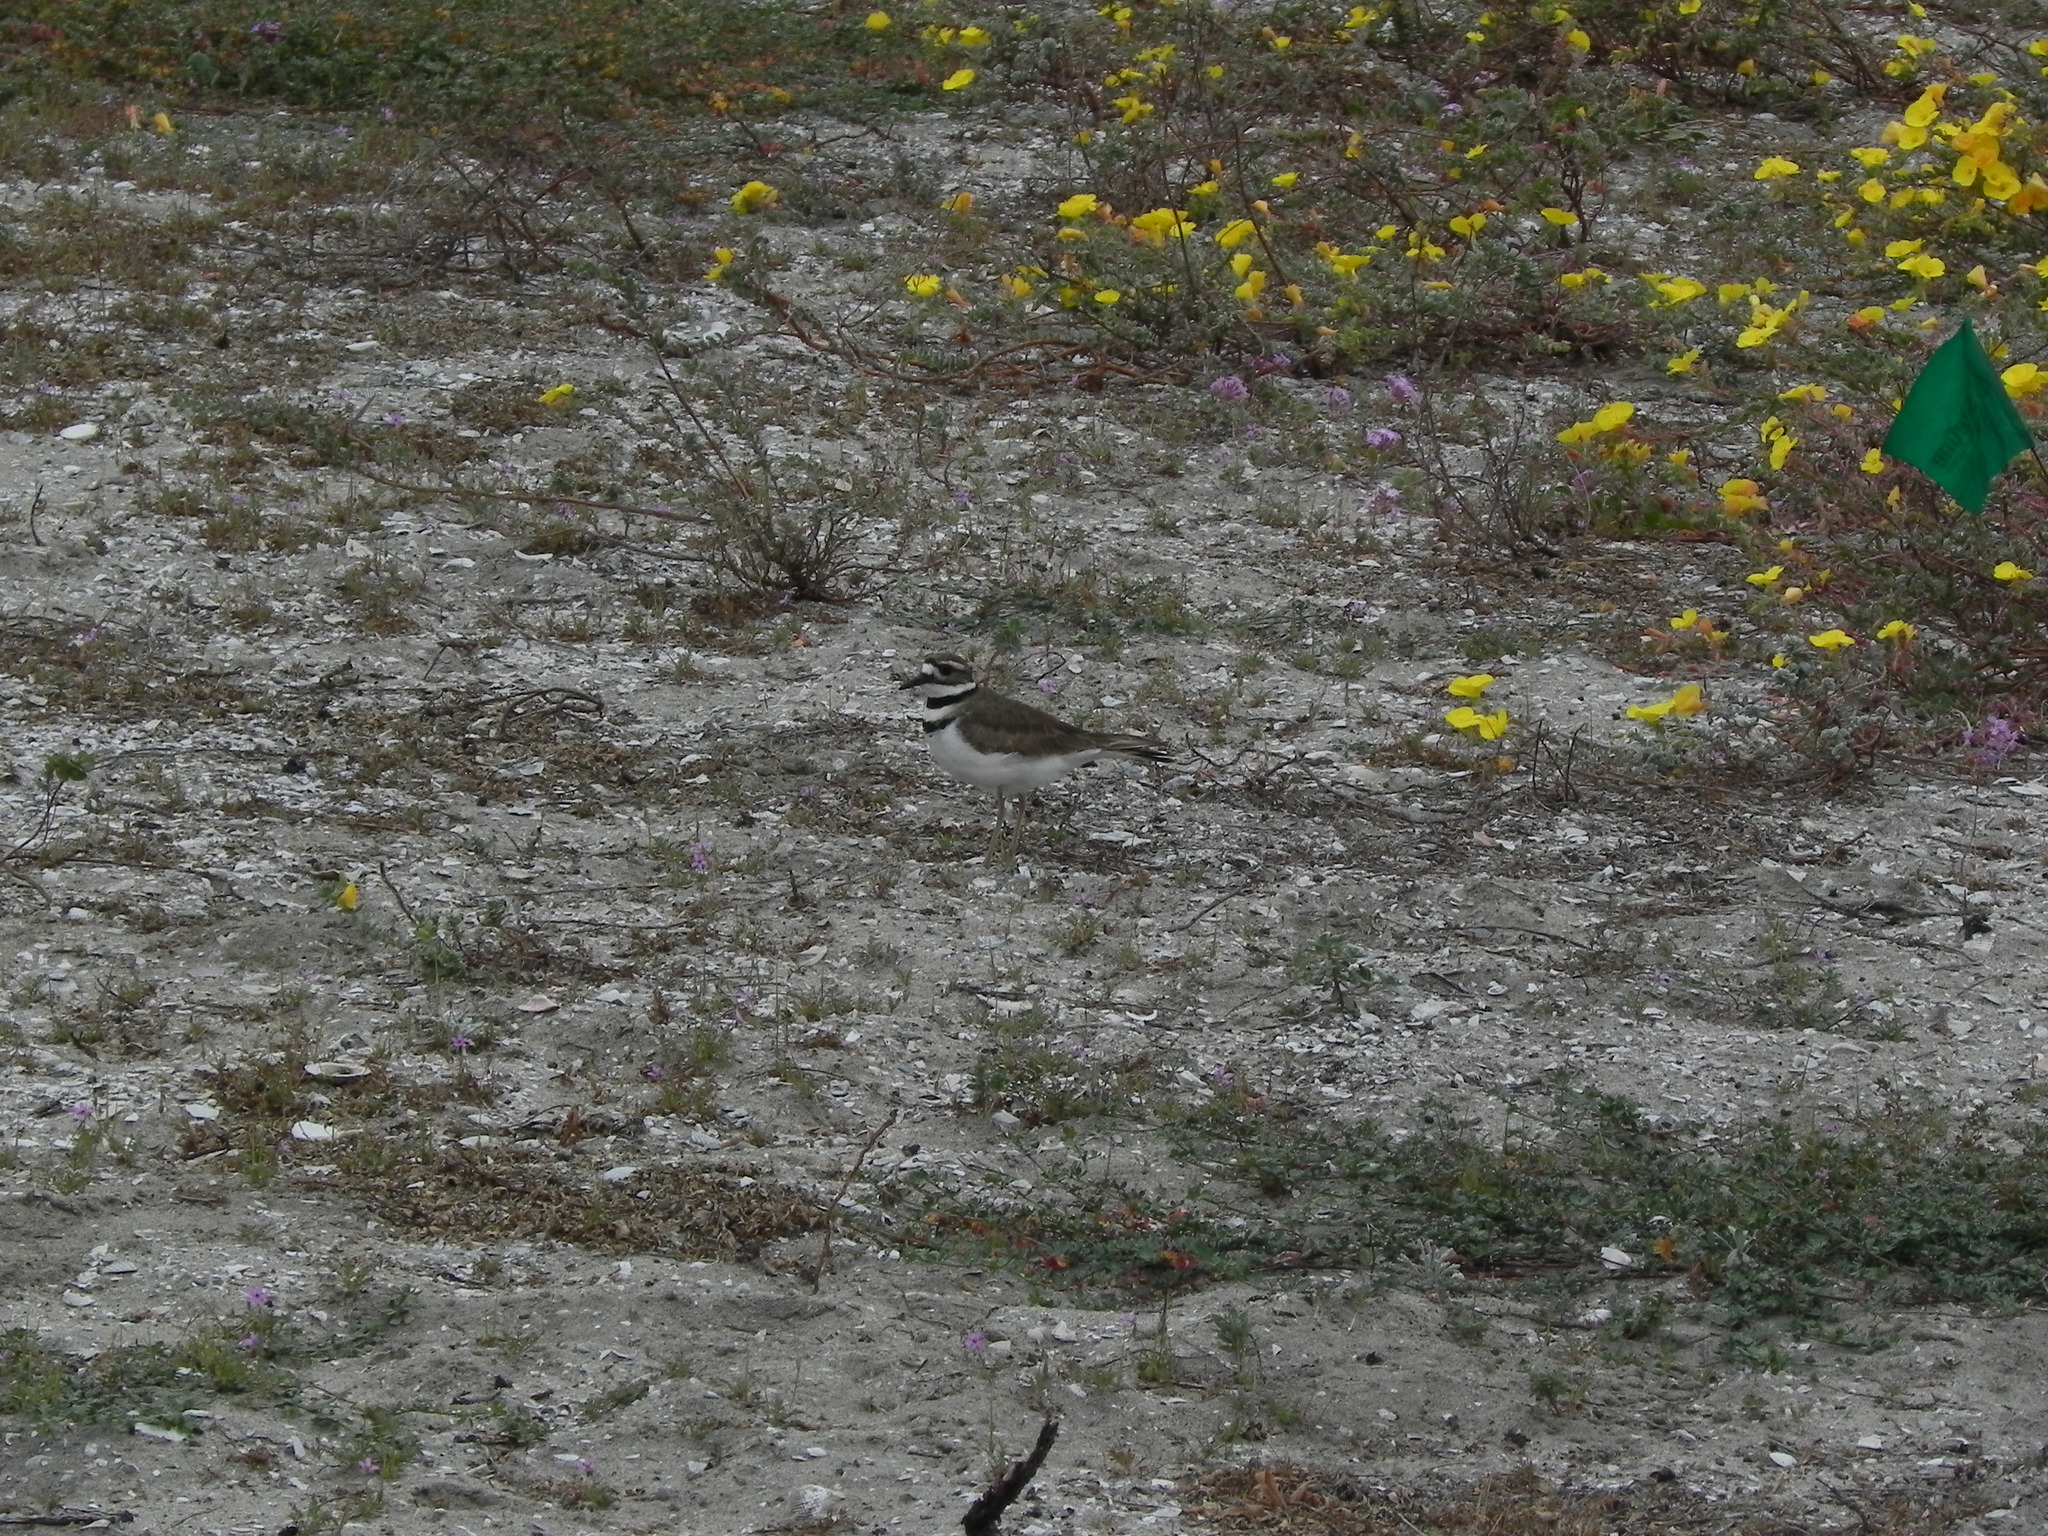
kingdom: Animalia
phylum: Chordata
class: Aves
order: Charadriiformes
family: Charadriidae
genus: Charadrius
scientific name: Charadrius vociferus
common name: Killdeer
